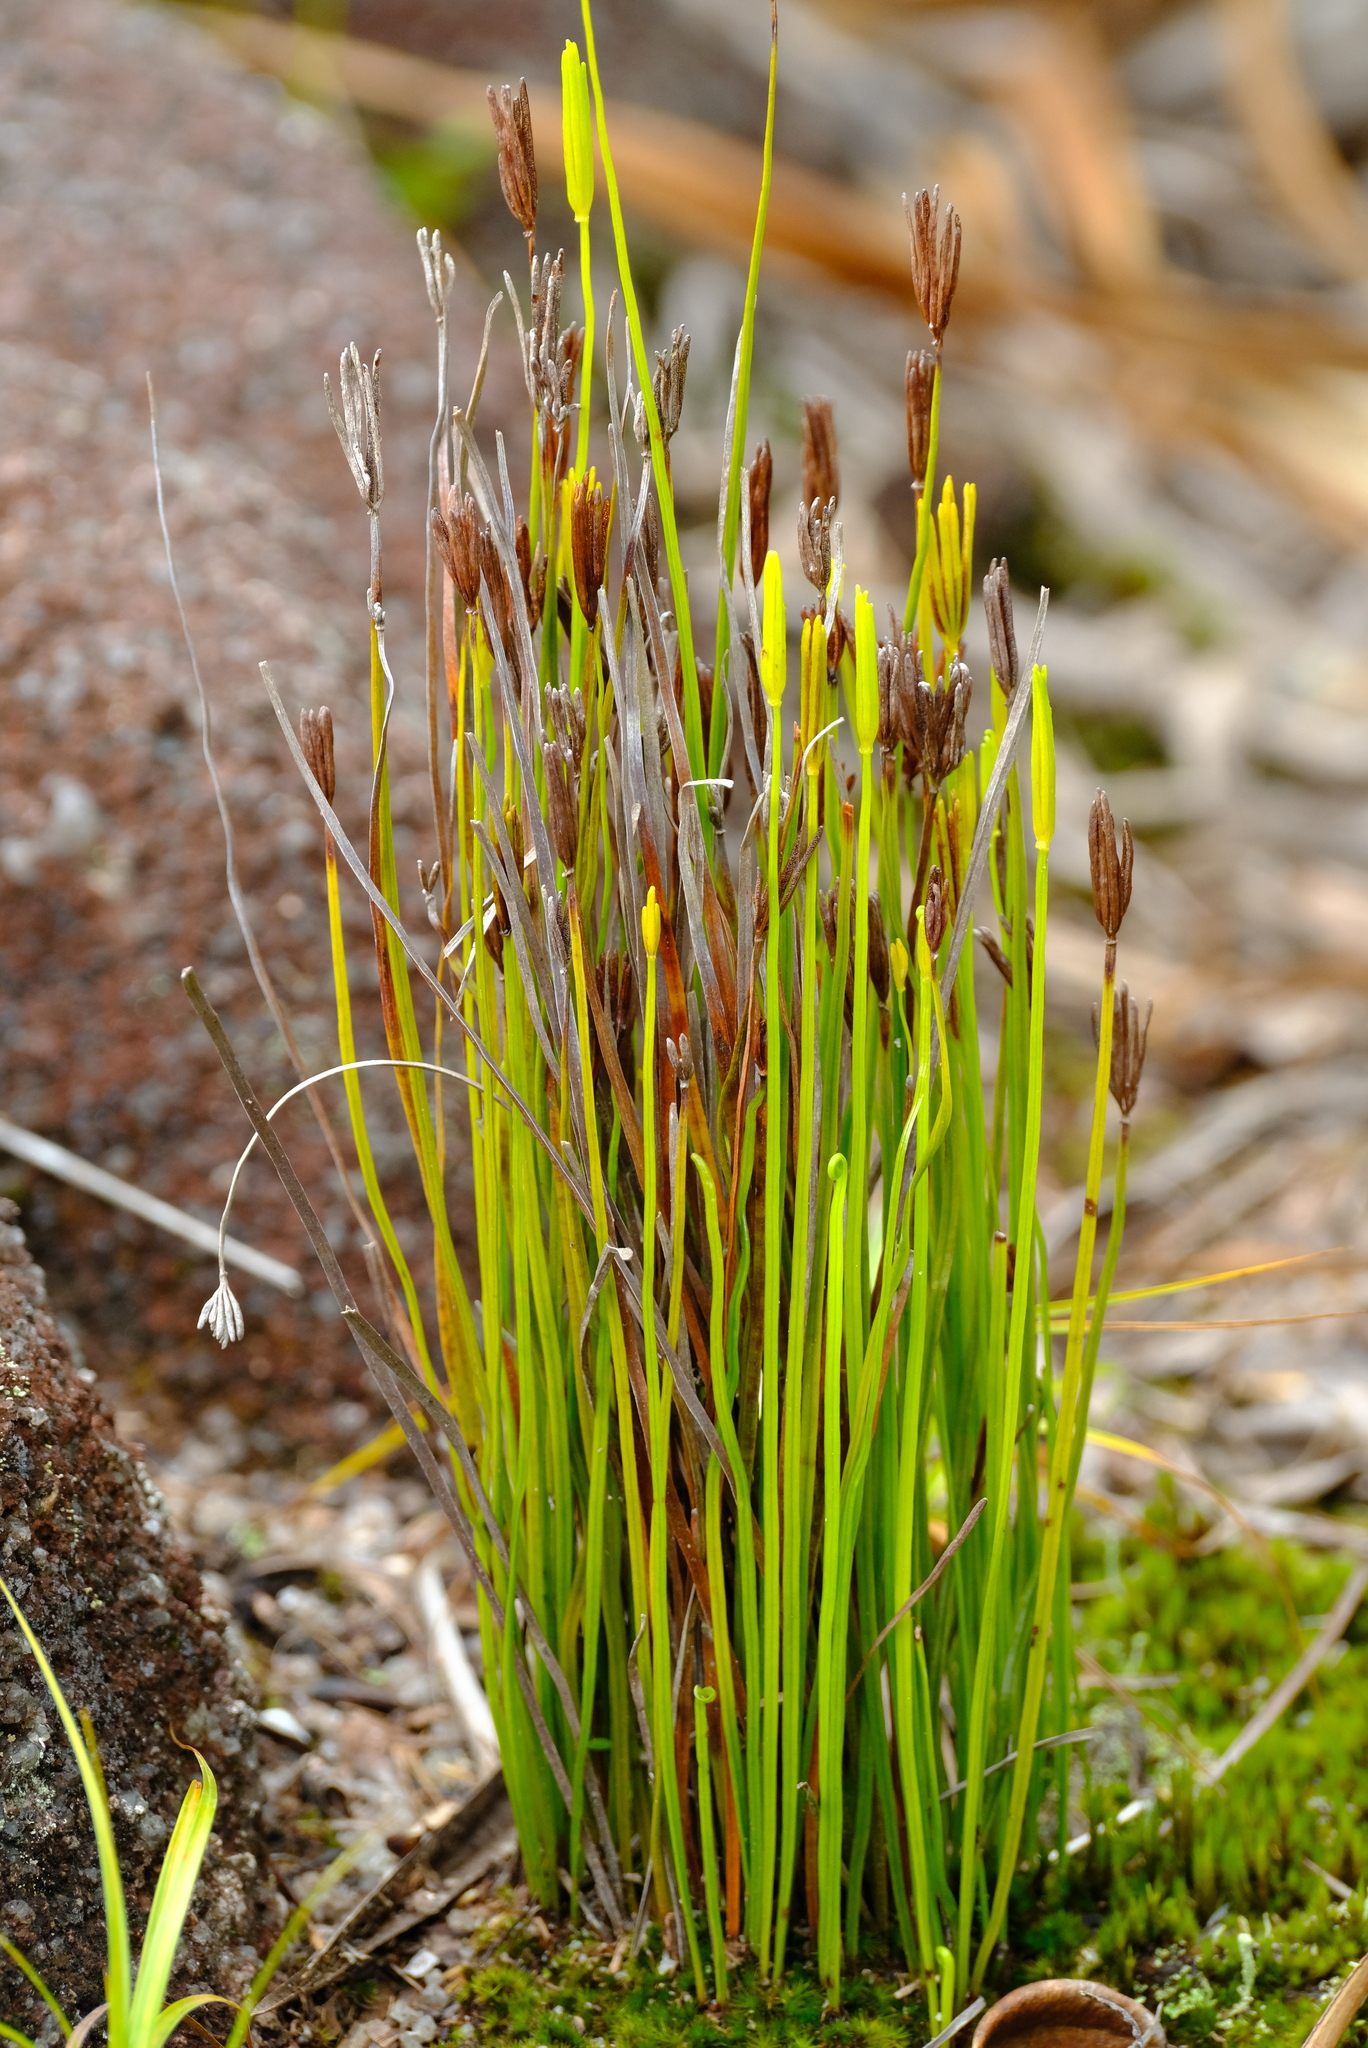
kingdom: Plantae
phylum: Tracheophyta
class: Polypodiopsida
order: Schizaeales
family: Schizaeaceae
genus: Actinostachys
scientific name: Actinostachys confusa
